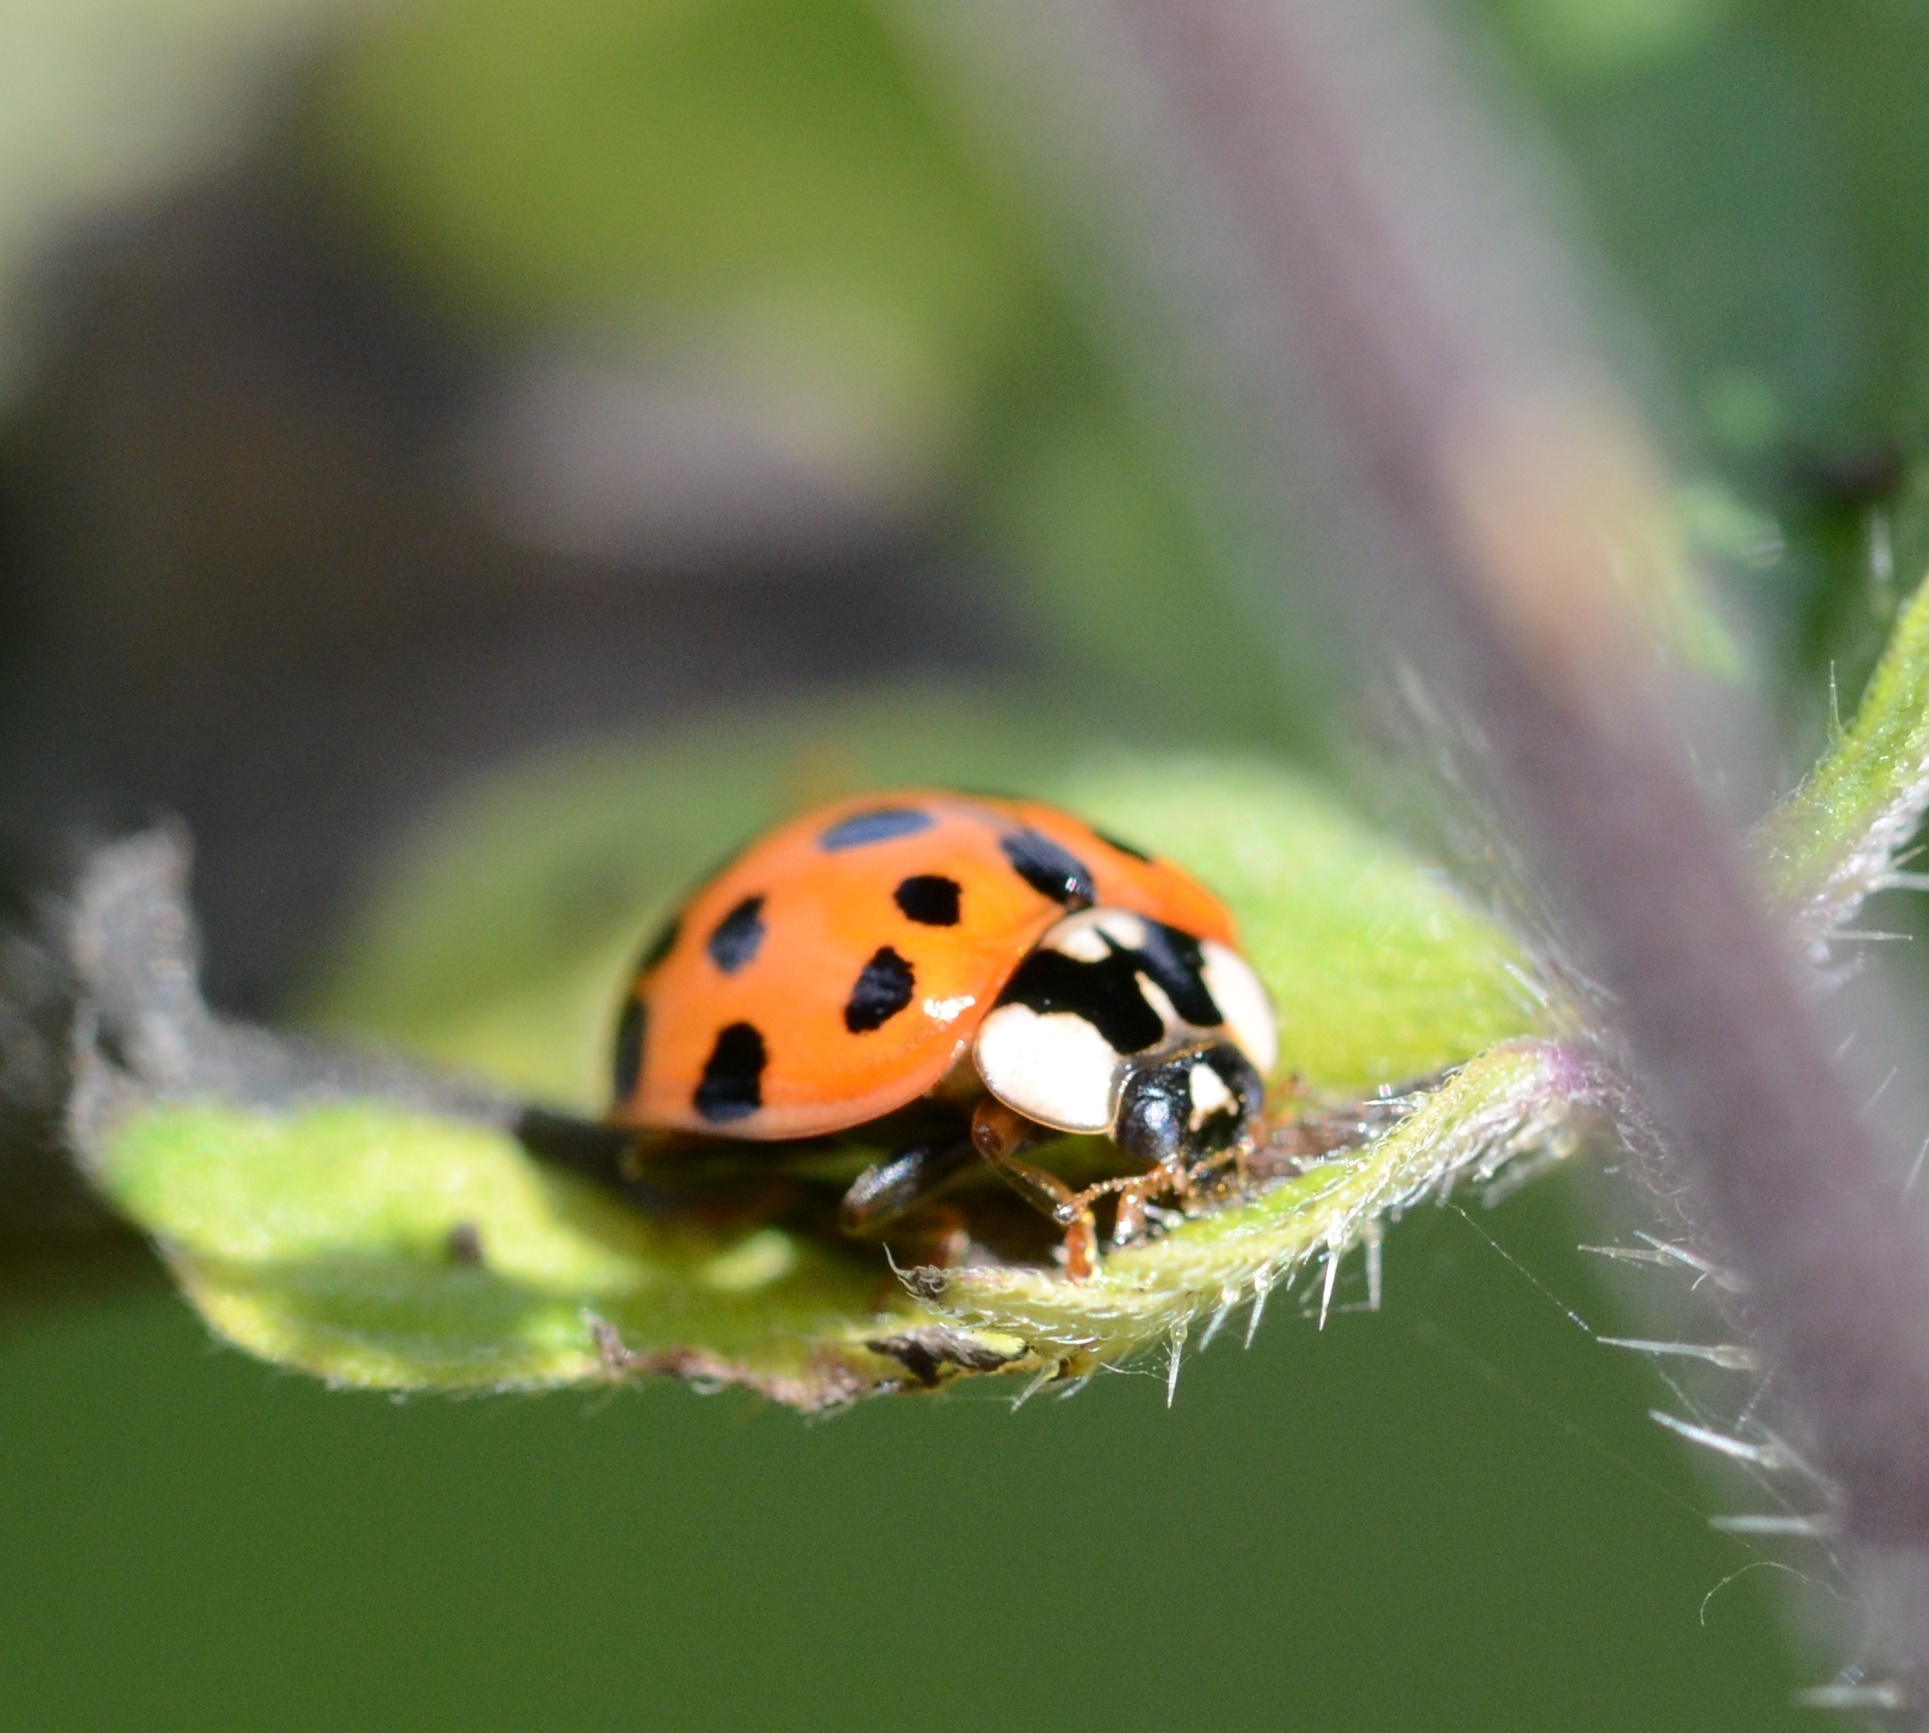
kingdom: Animalia
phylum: Arthropoda
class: Insecta
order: Coleoptera
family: Coccinellidae
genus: Harmonia
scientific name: Harmonia axyridis
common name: Harlequin ladybird
